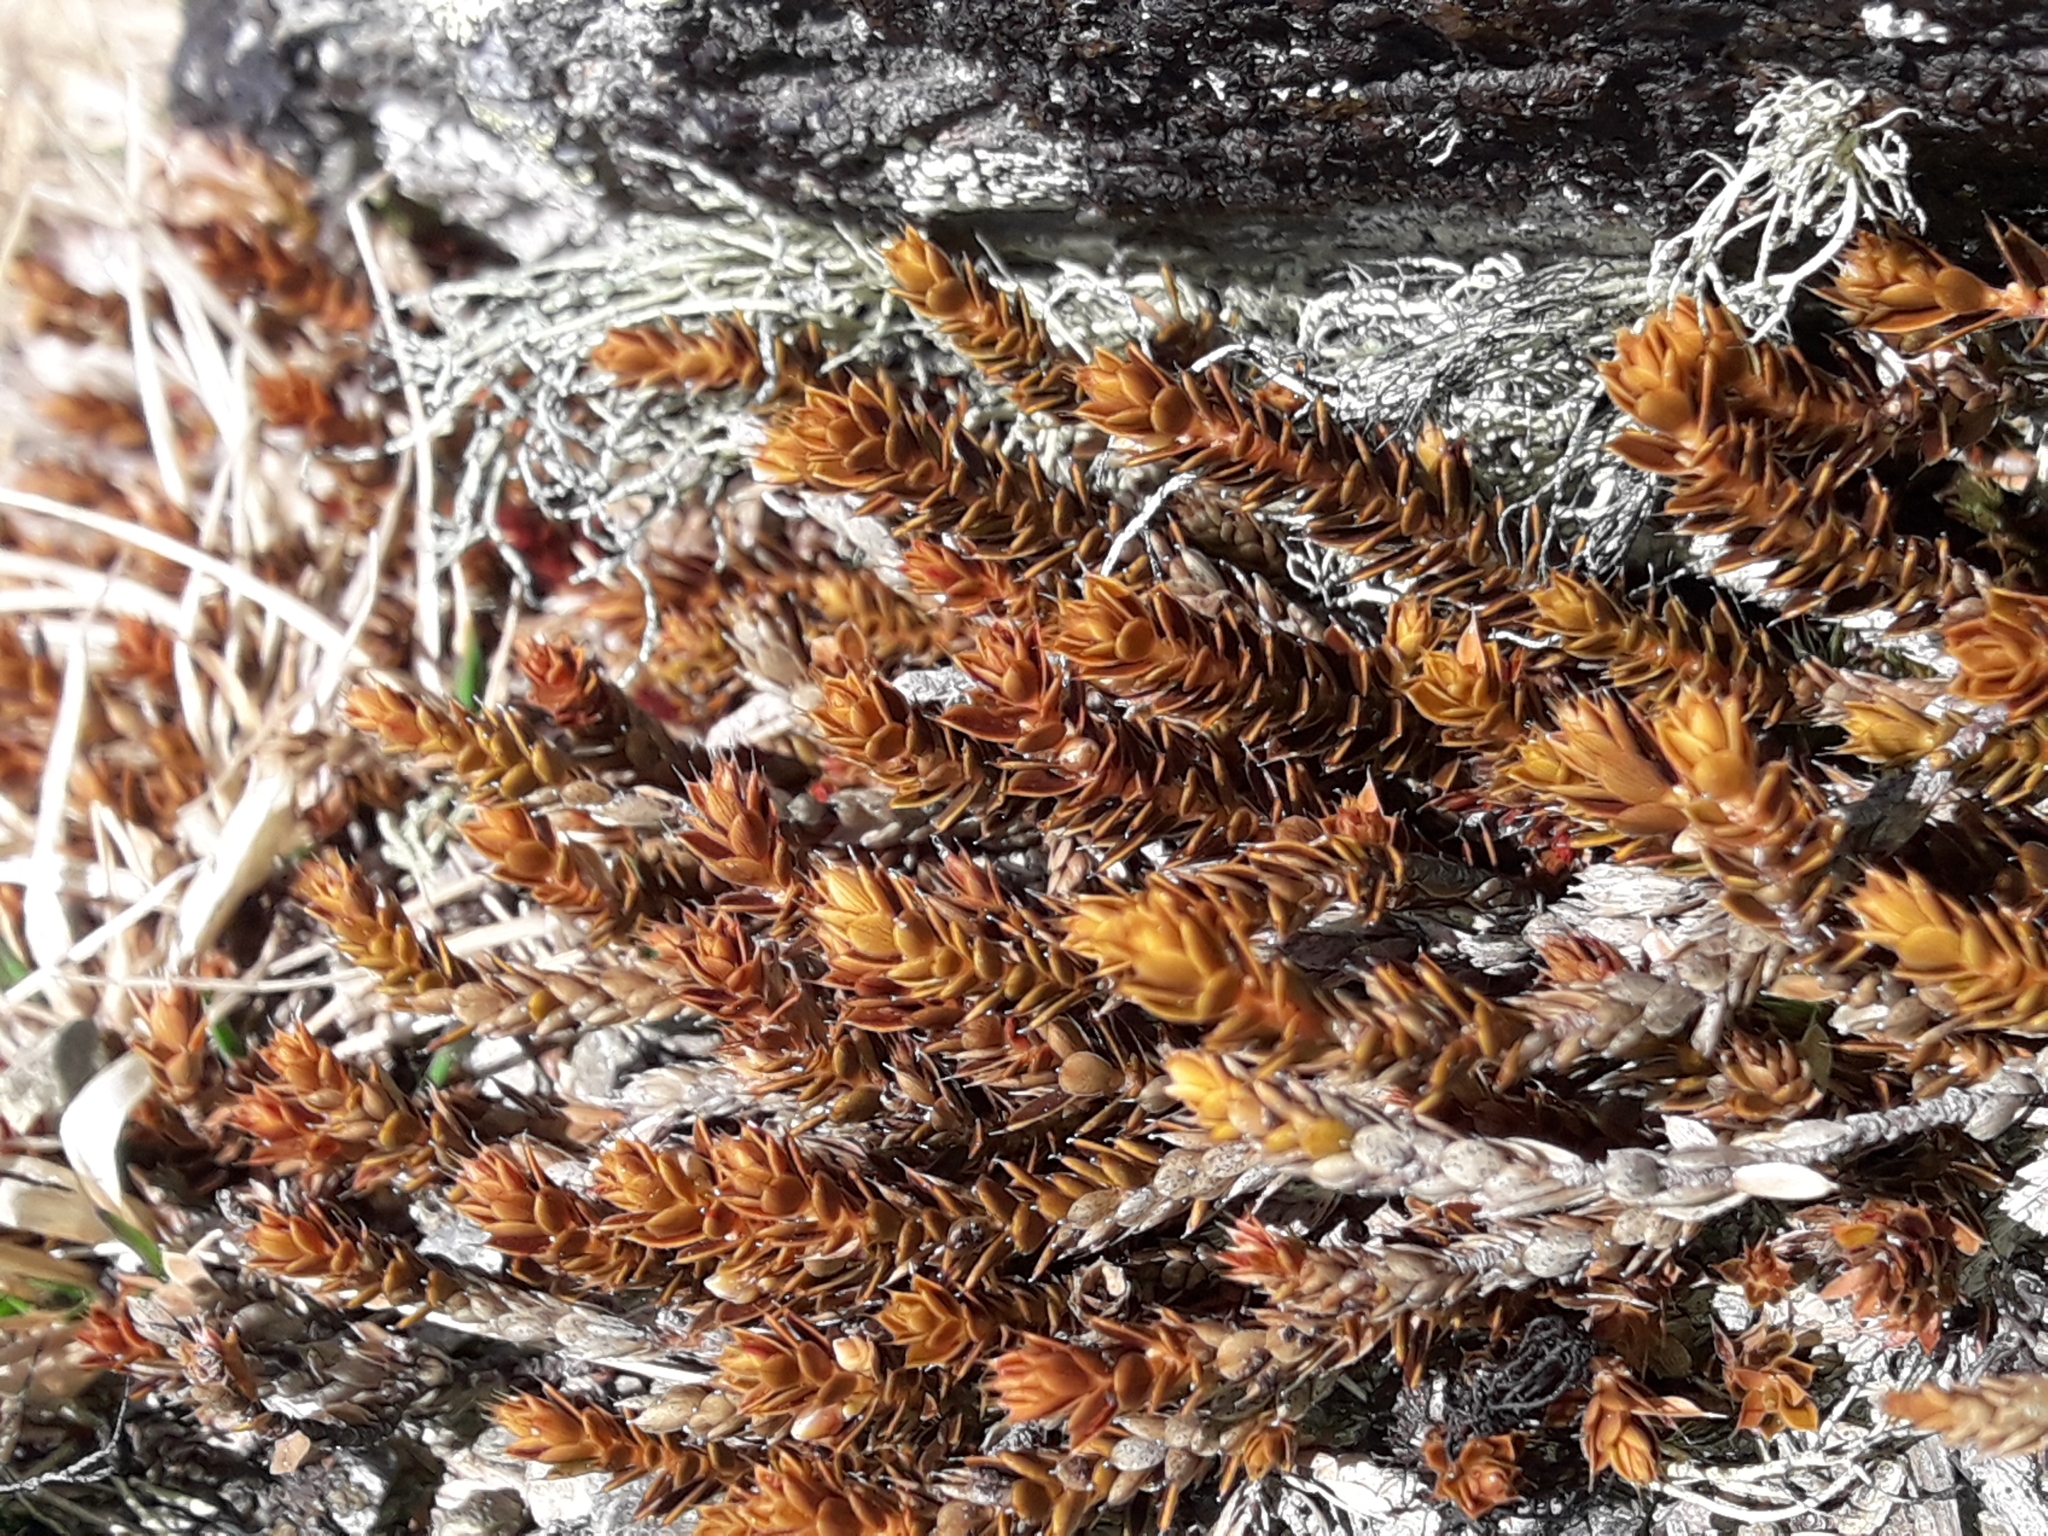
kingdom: Plantae
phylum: Tracheophyta
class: Magnoliopsida
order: Ericales
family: Ericaceae
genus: Styphelia
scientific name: Styphelia nesophila
